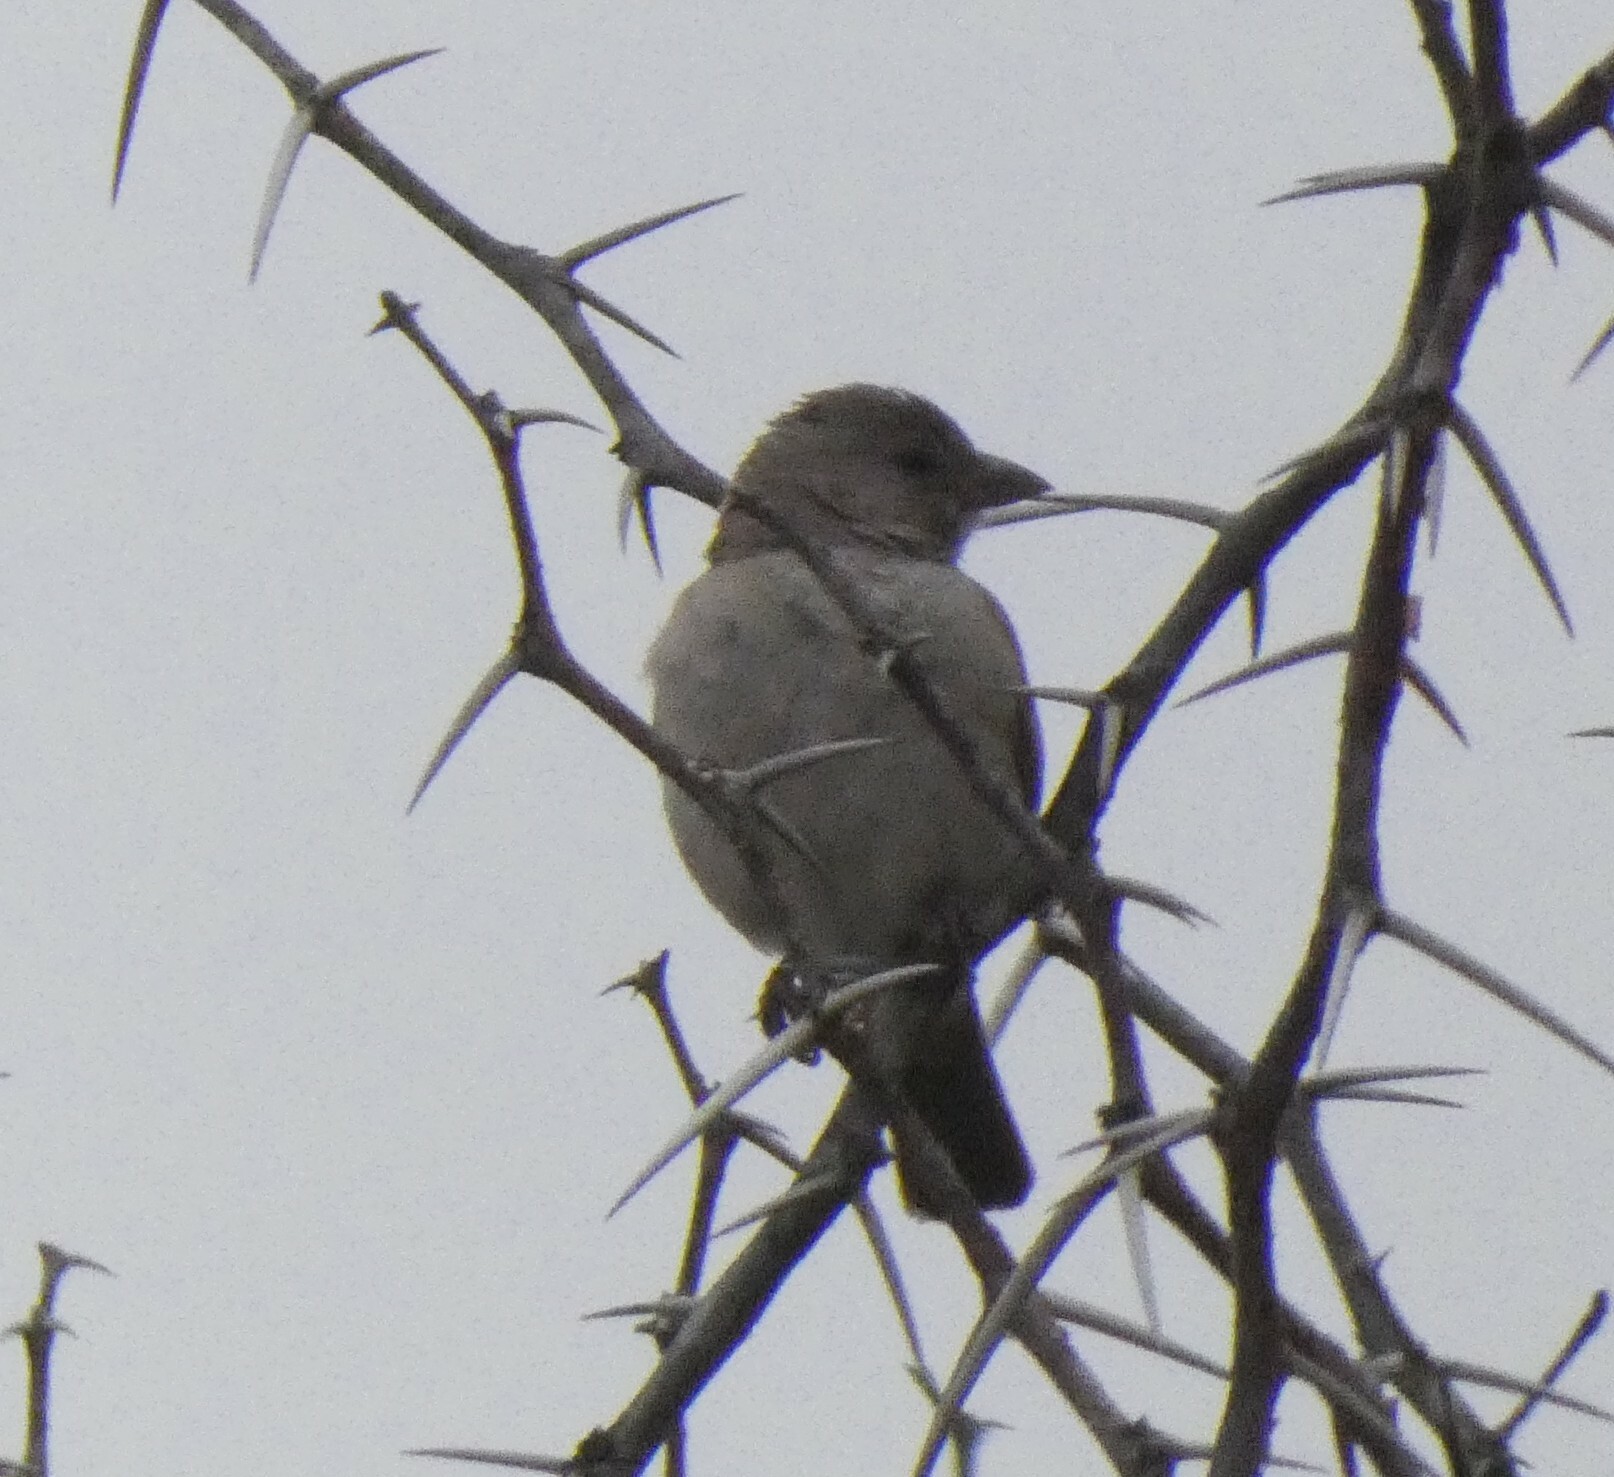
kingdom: Animalia
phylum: Chordata
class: Aves
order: Passeriformes
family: Passeridae
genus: Passer
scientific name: Passer diffusus
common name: Southern grey-headed sparrow
